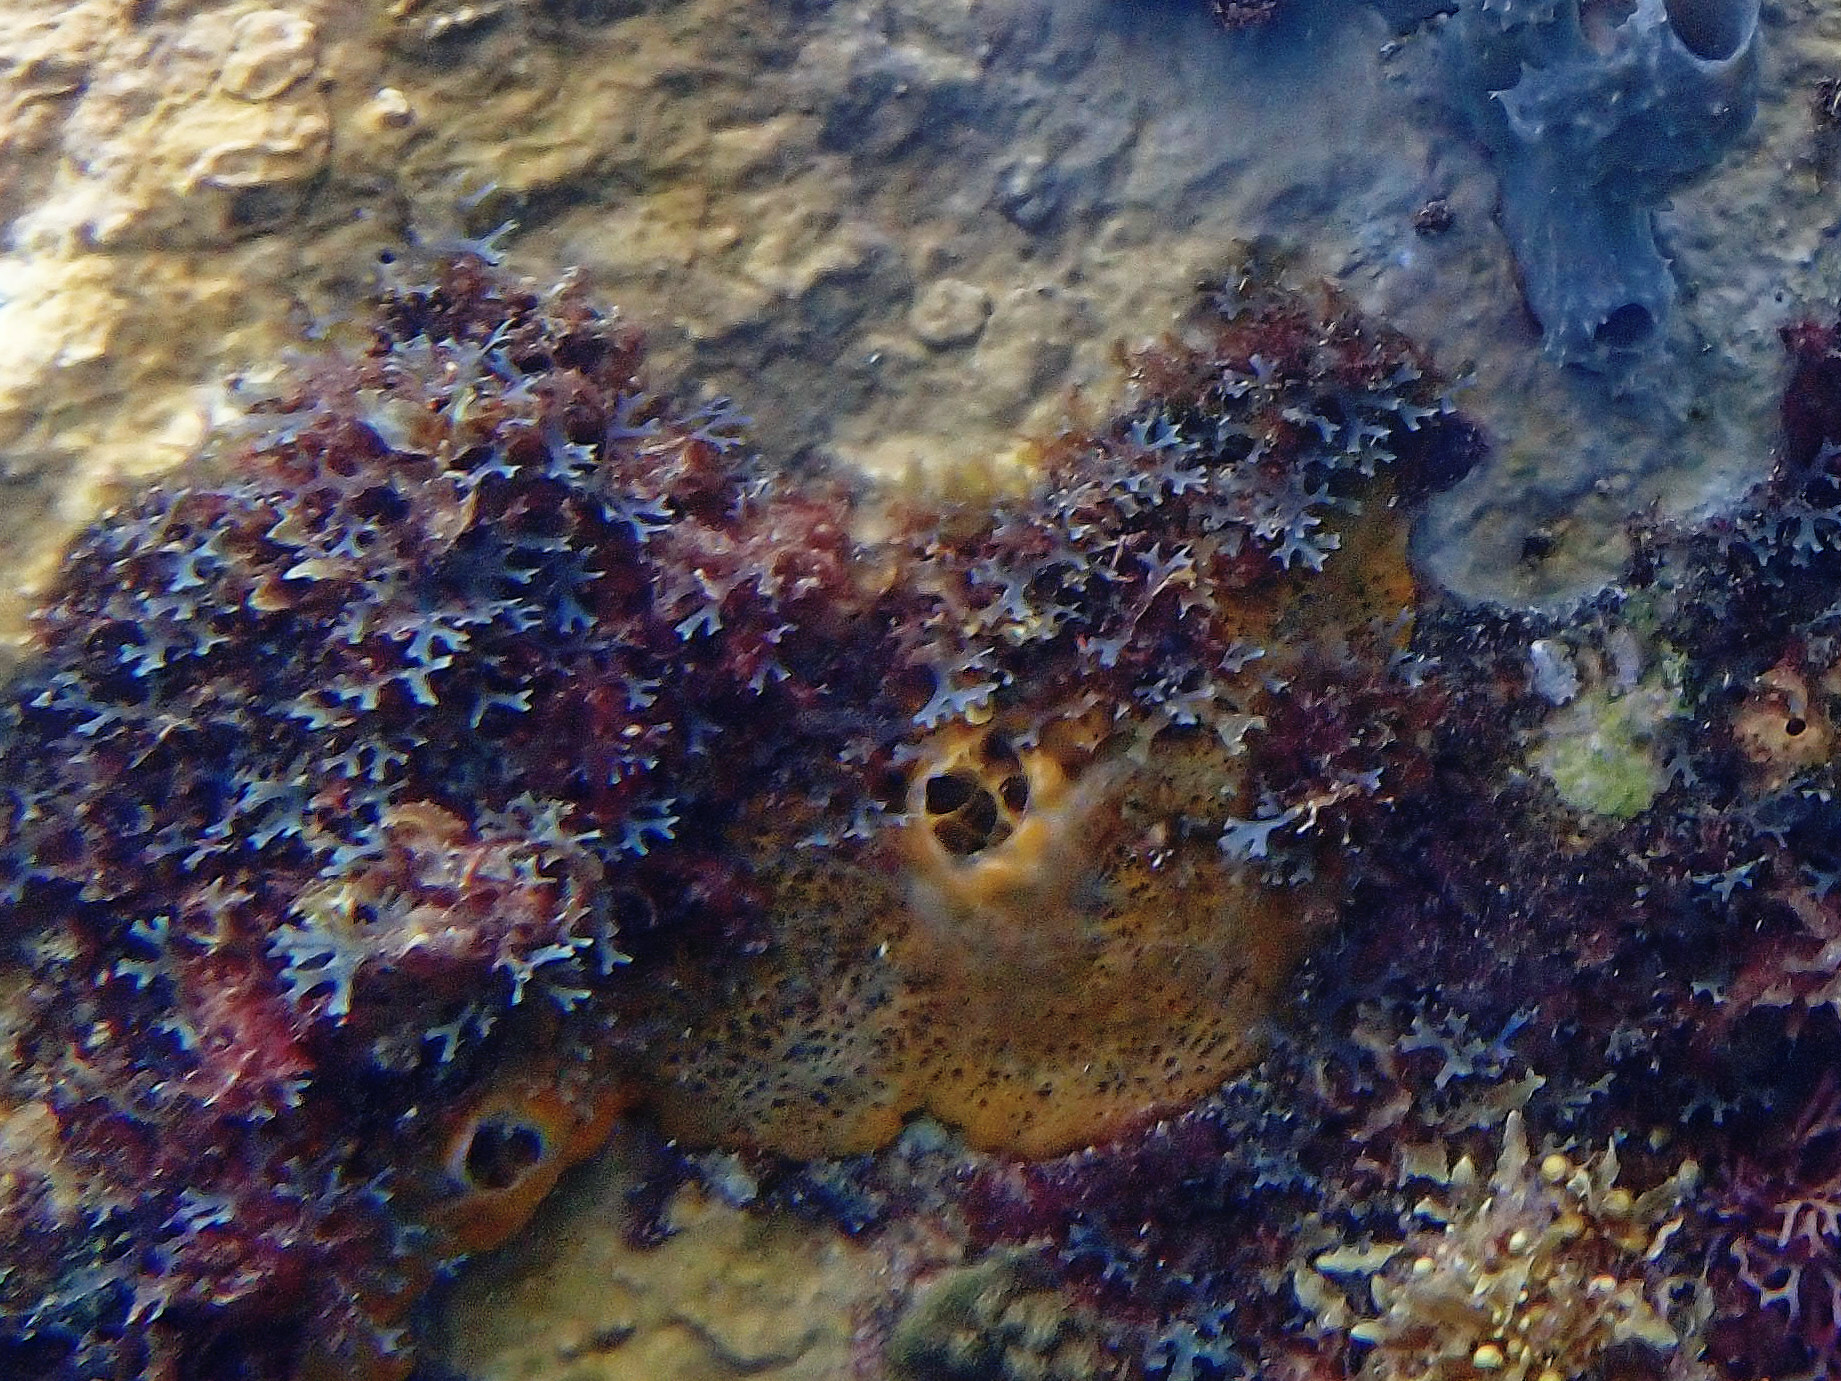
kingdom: Animalia
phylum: Porifera
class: Demospongiae
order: Poecilosclerida
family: Mycalidae
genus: Mycale
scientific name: Mycale laevis
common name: Orange icing sponge
